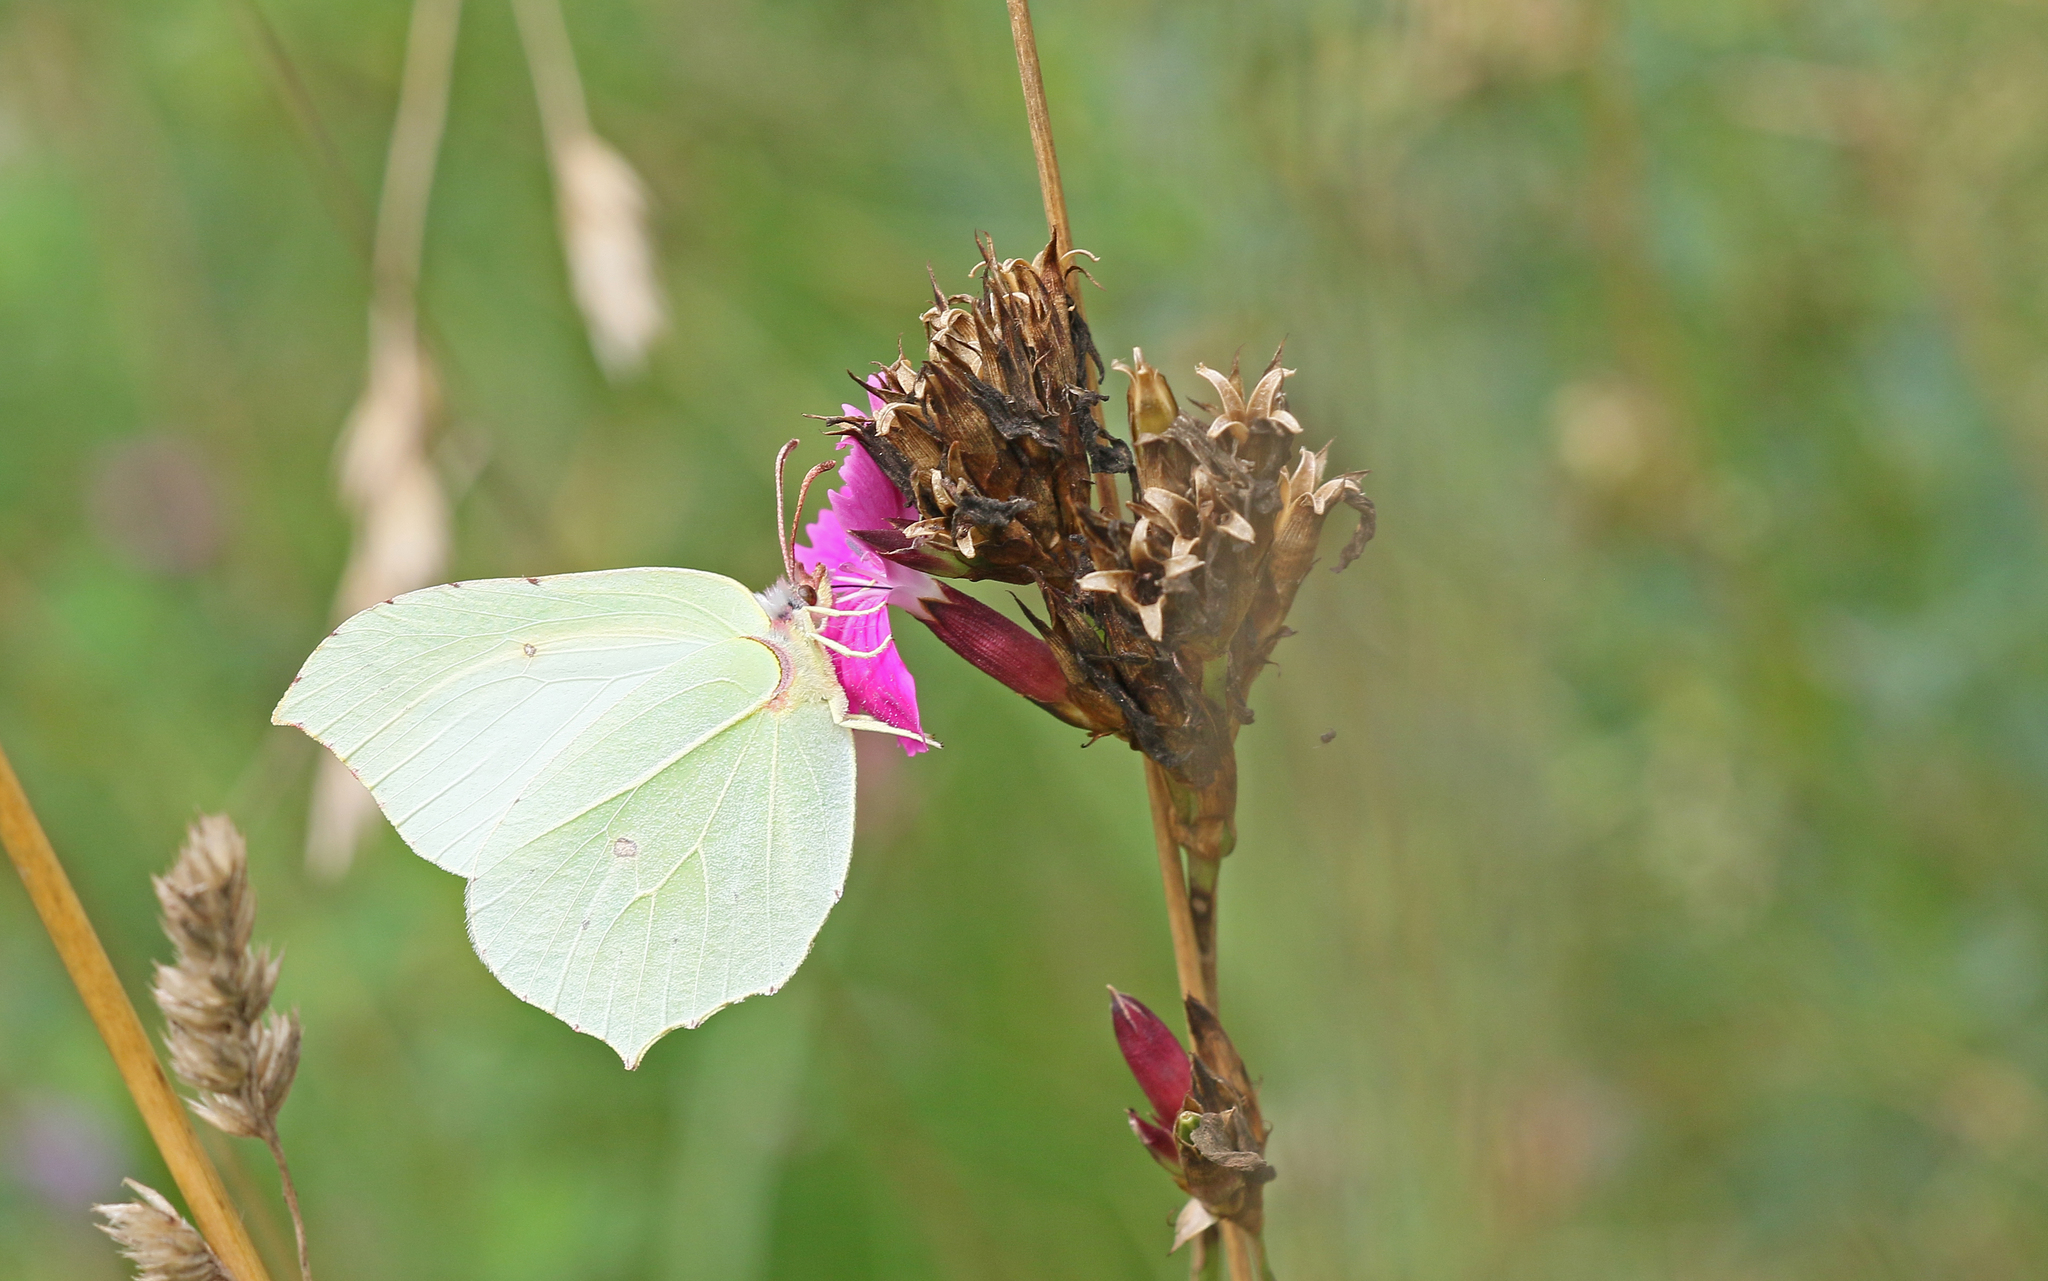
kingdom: Animalia
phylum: Arthropoda
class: Insecta
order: Lepidoptera
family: Pieridae
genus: Gonepteryx
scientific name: Gonepteryx rhamni
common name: Brimstone
